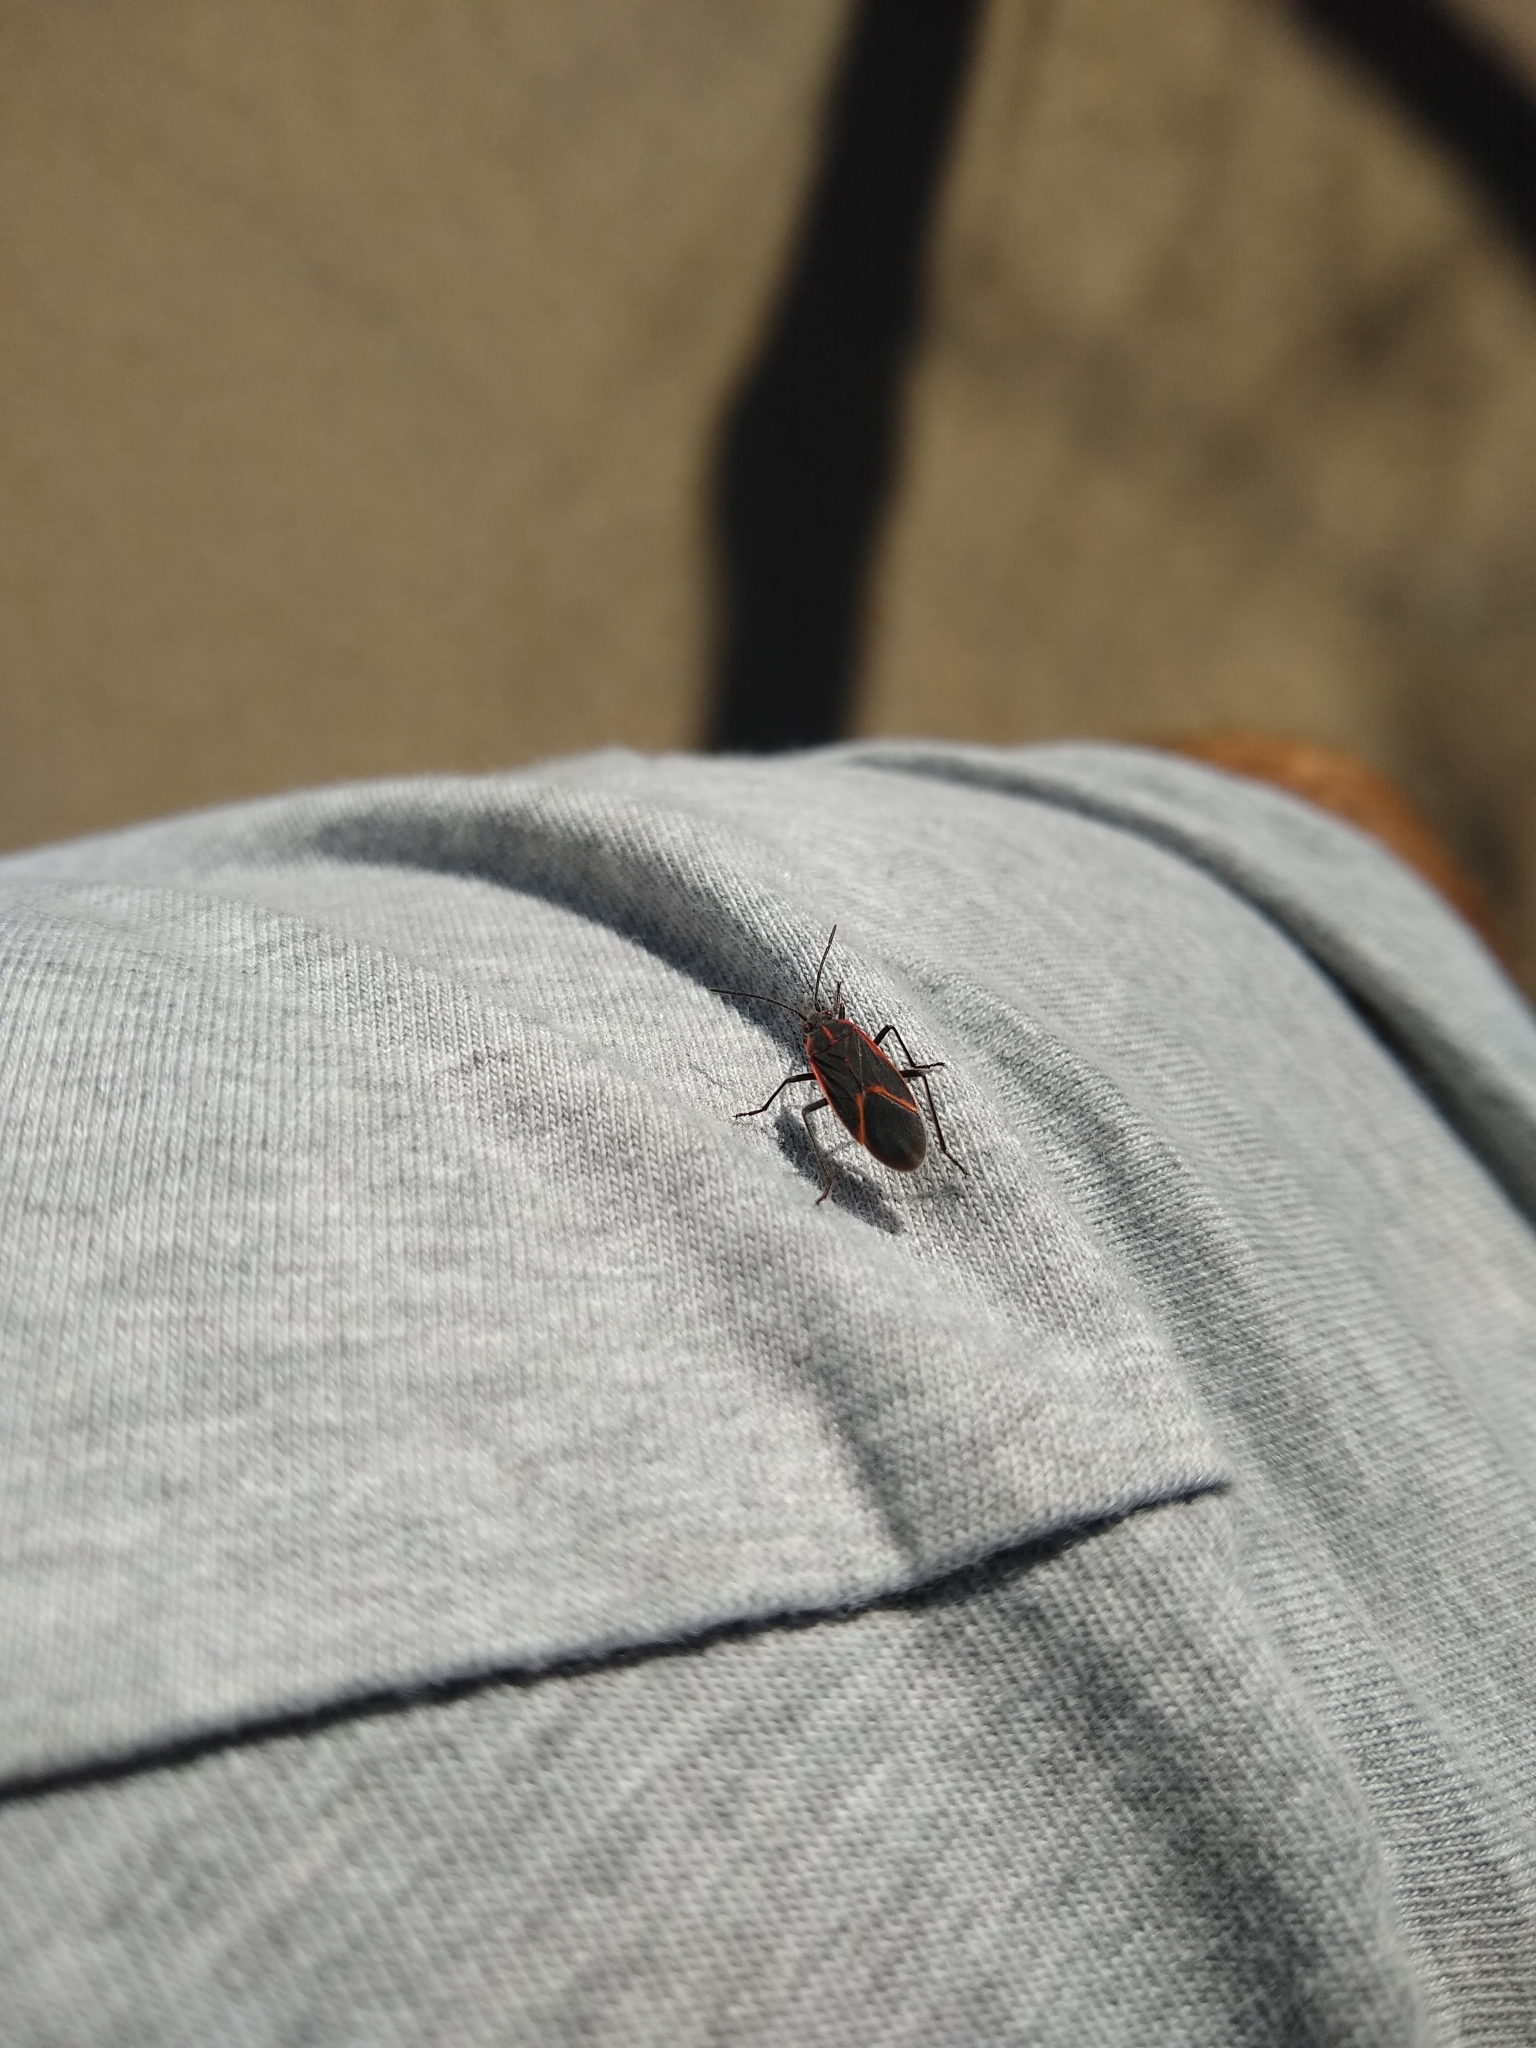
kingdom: Animalia
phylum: Arthropoda
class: Insecta
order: Hemiptera
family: Rhopalidae
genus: Boisea
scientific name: Boisea trivittata
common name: Boxelder bug
